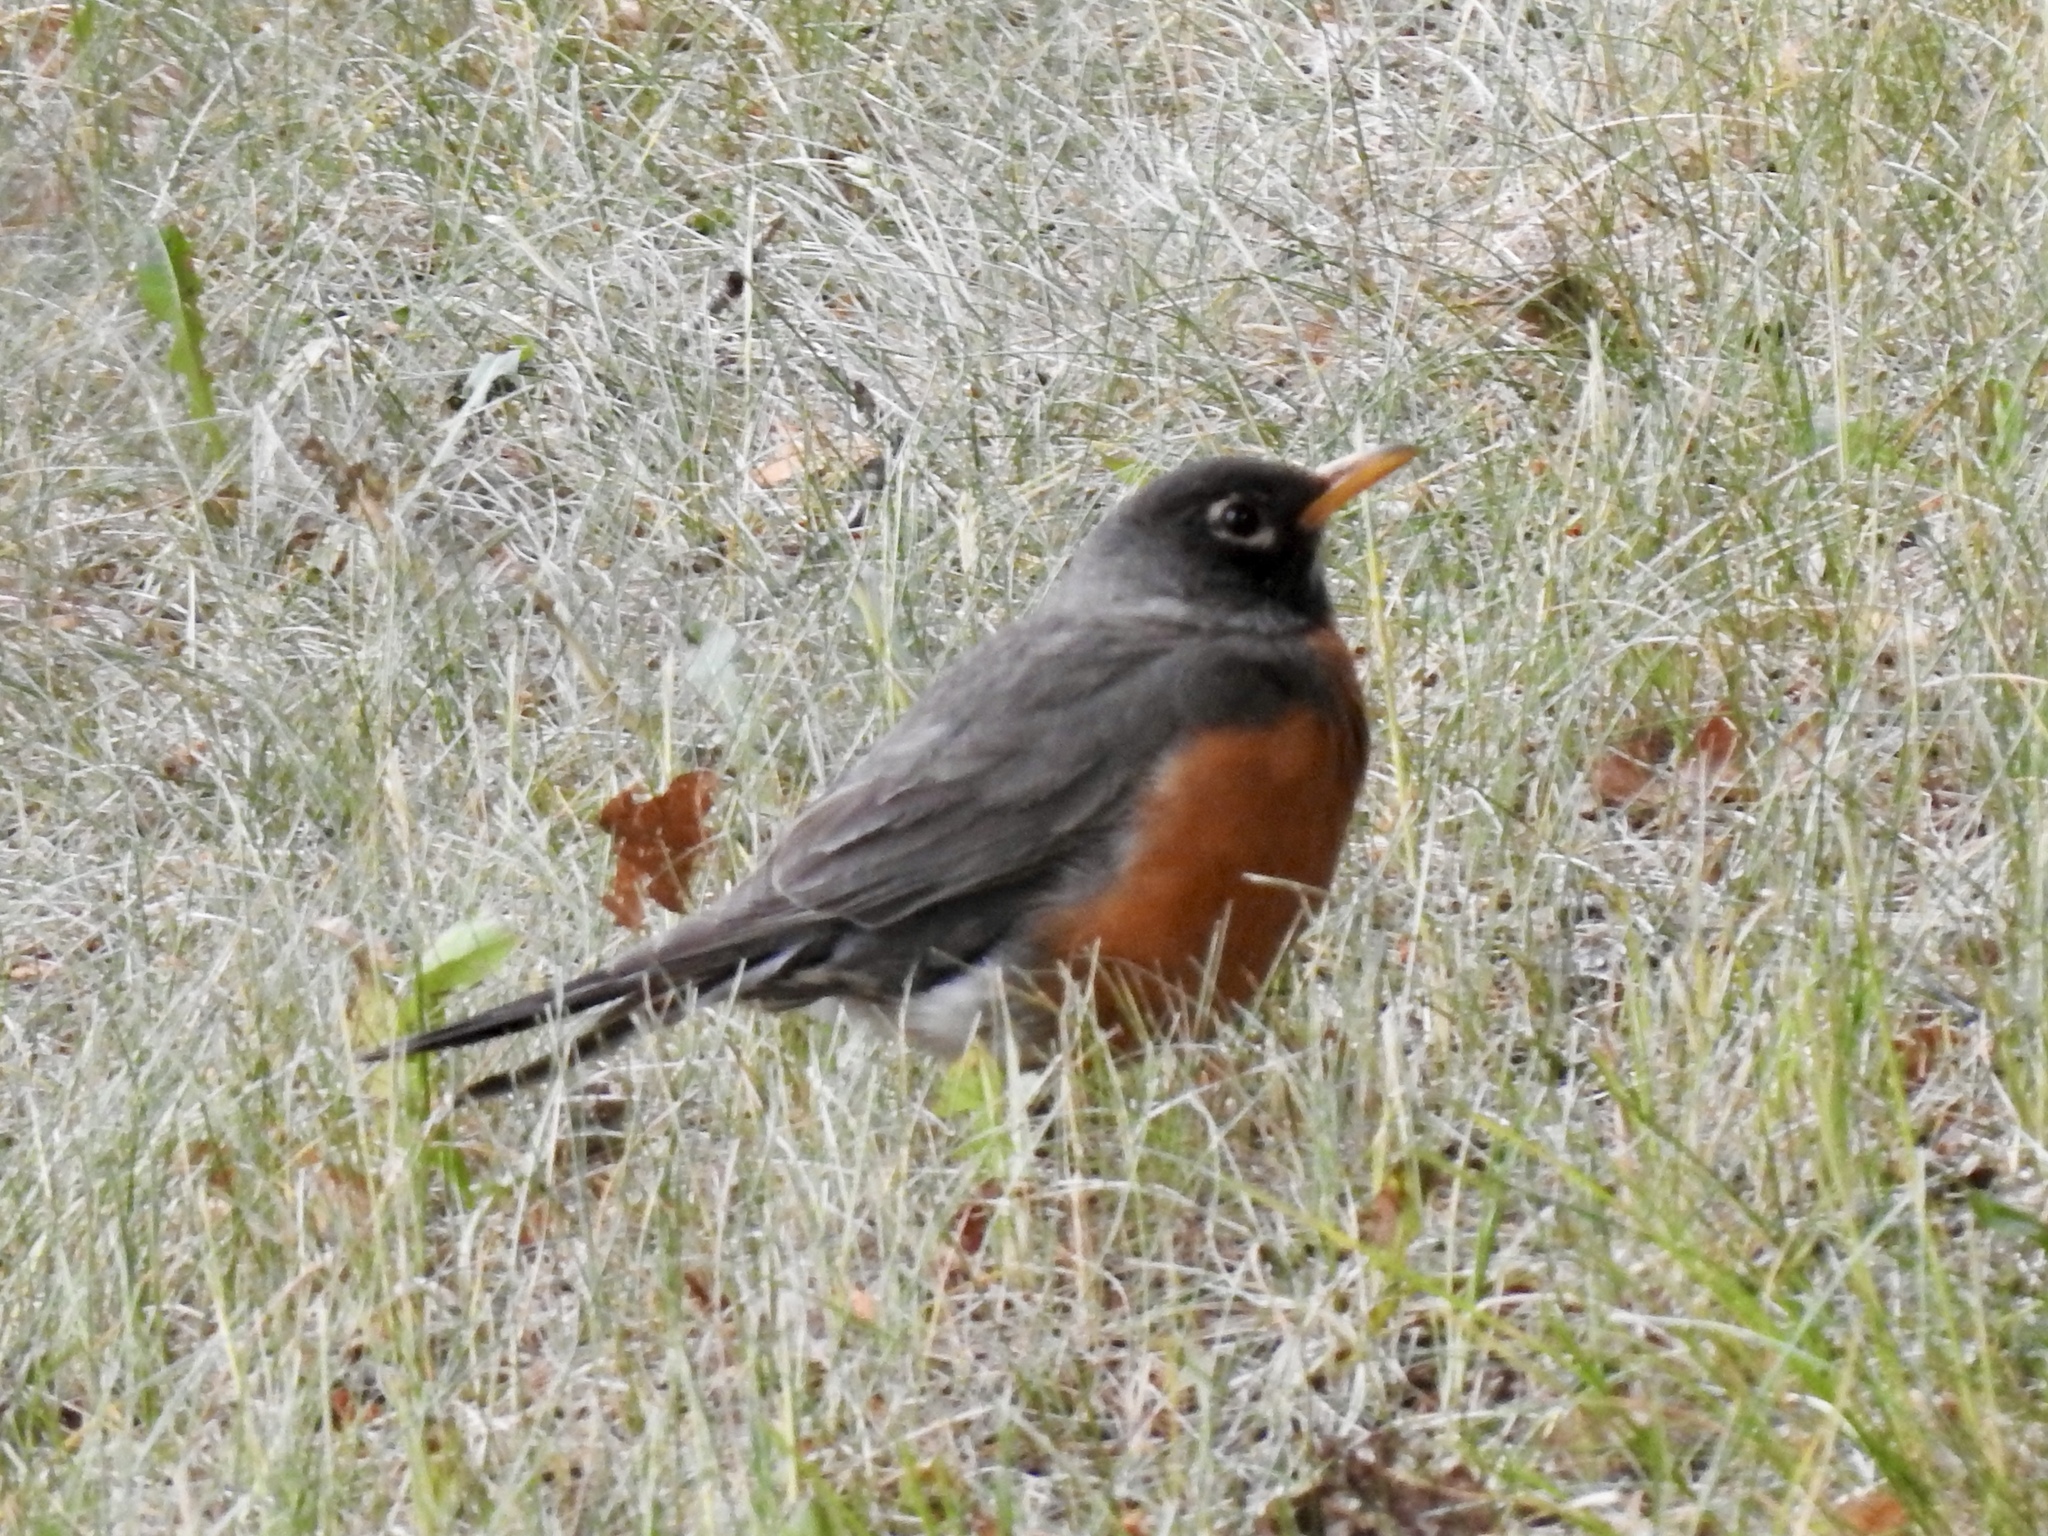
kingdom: Animalia
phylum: Chordata
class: Aves
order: Passeriformes
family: Turdidae
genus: Turdus
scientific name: Turdus migratorius
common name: American robin
